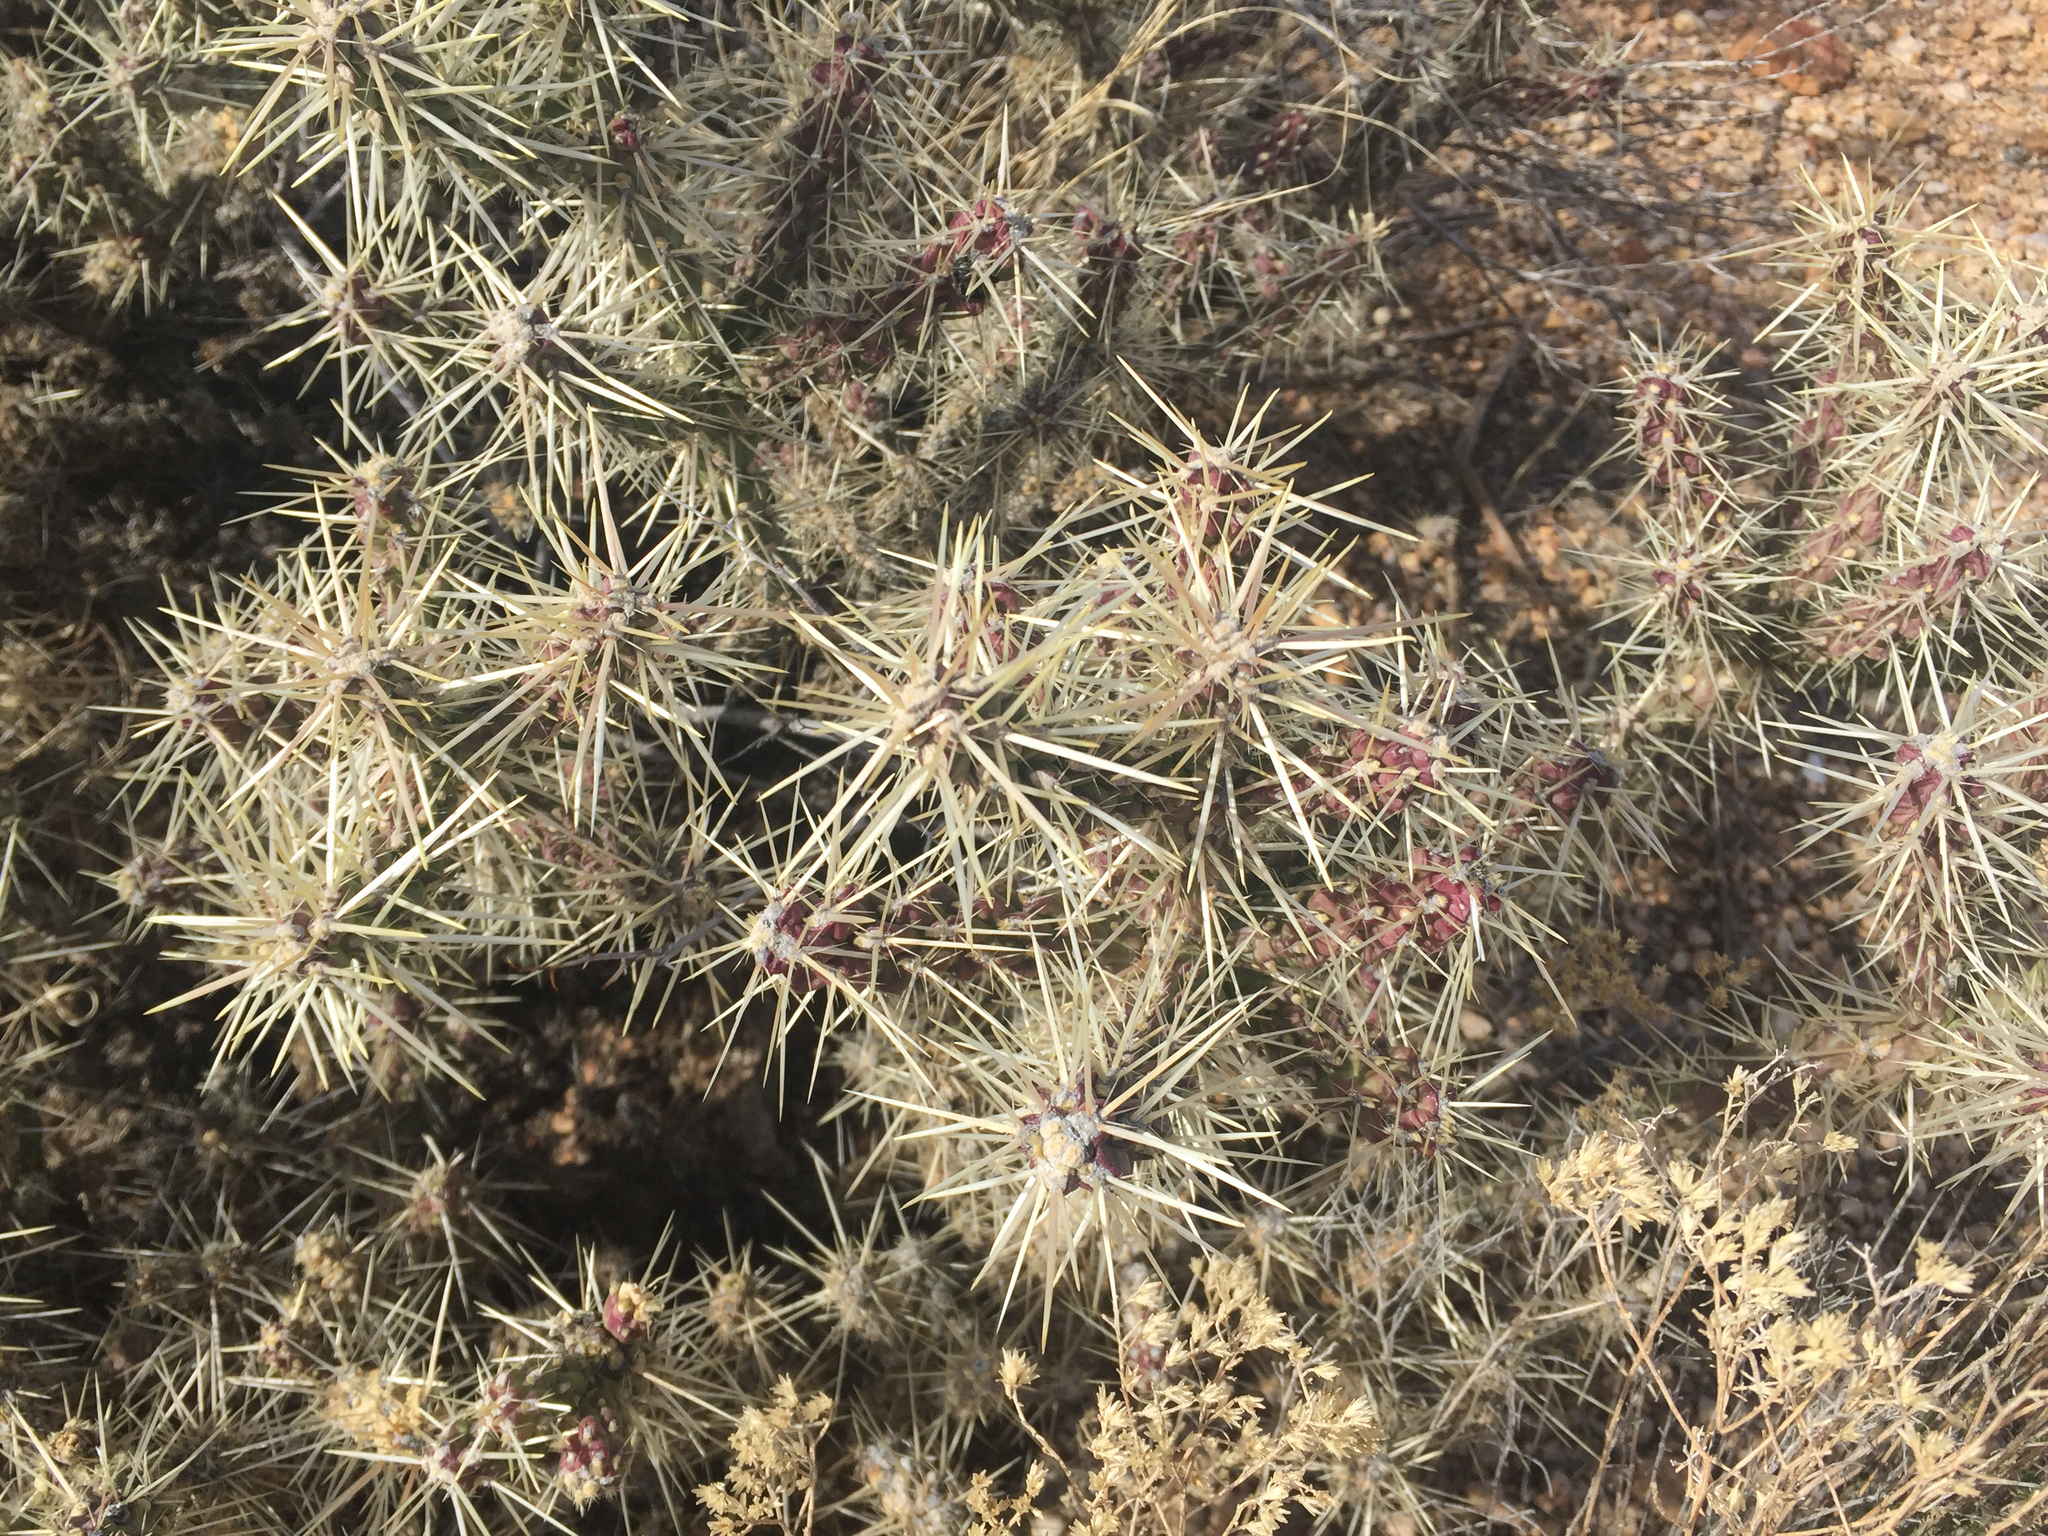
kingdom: Plantae
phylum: Tracheophyta
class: Magnoliopsida
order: Caryophyllales
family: Cactaceae
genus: Cylindropuntia
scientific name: Cylindropuntia whipplei
